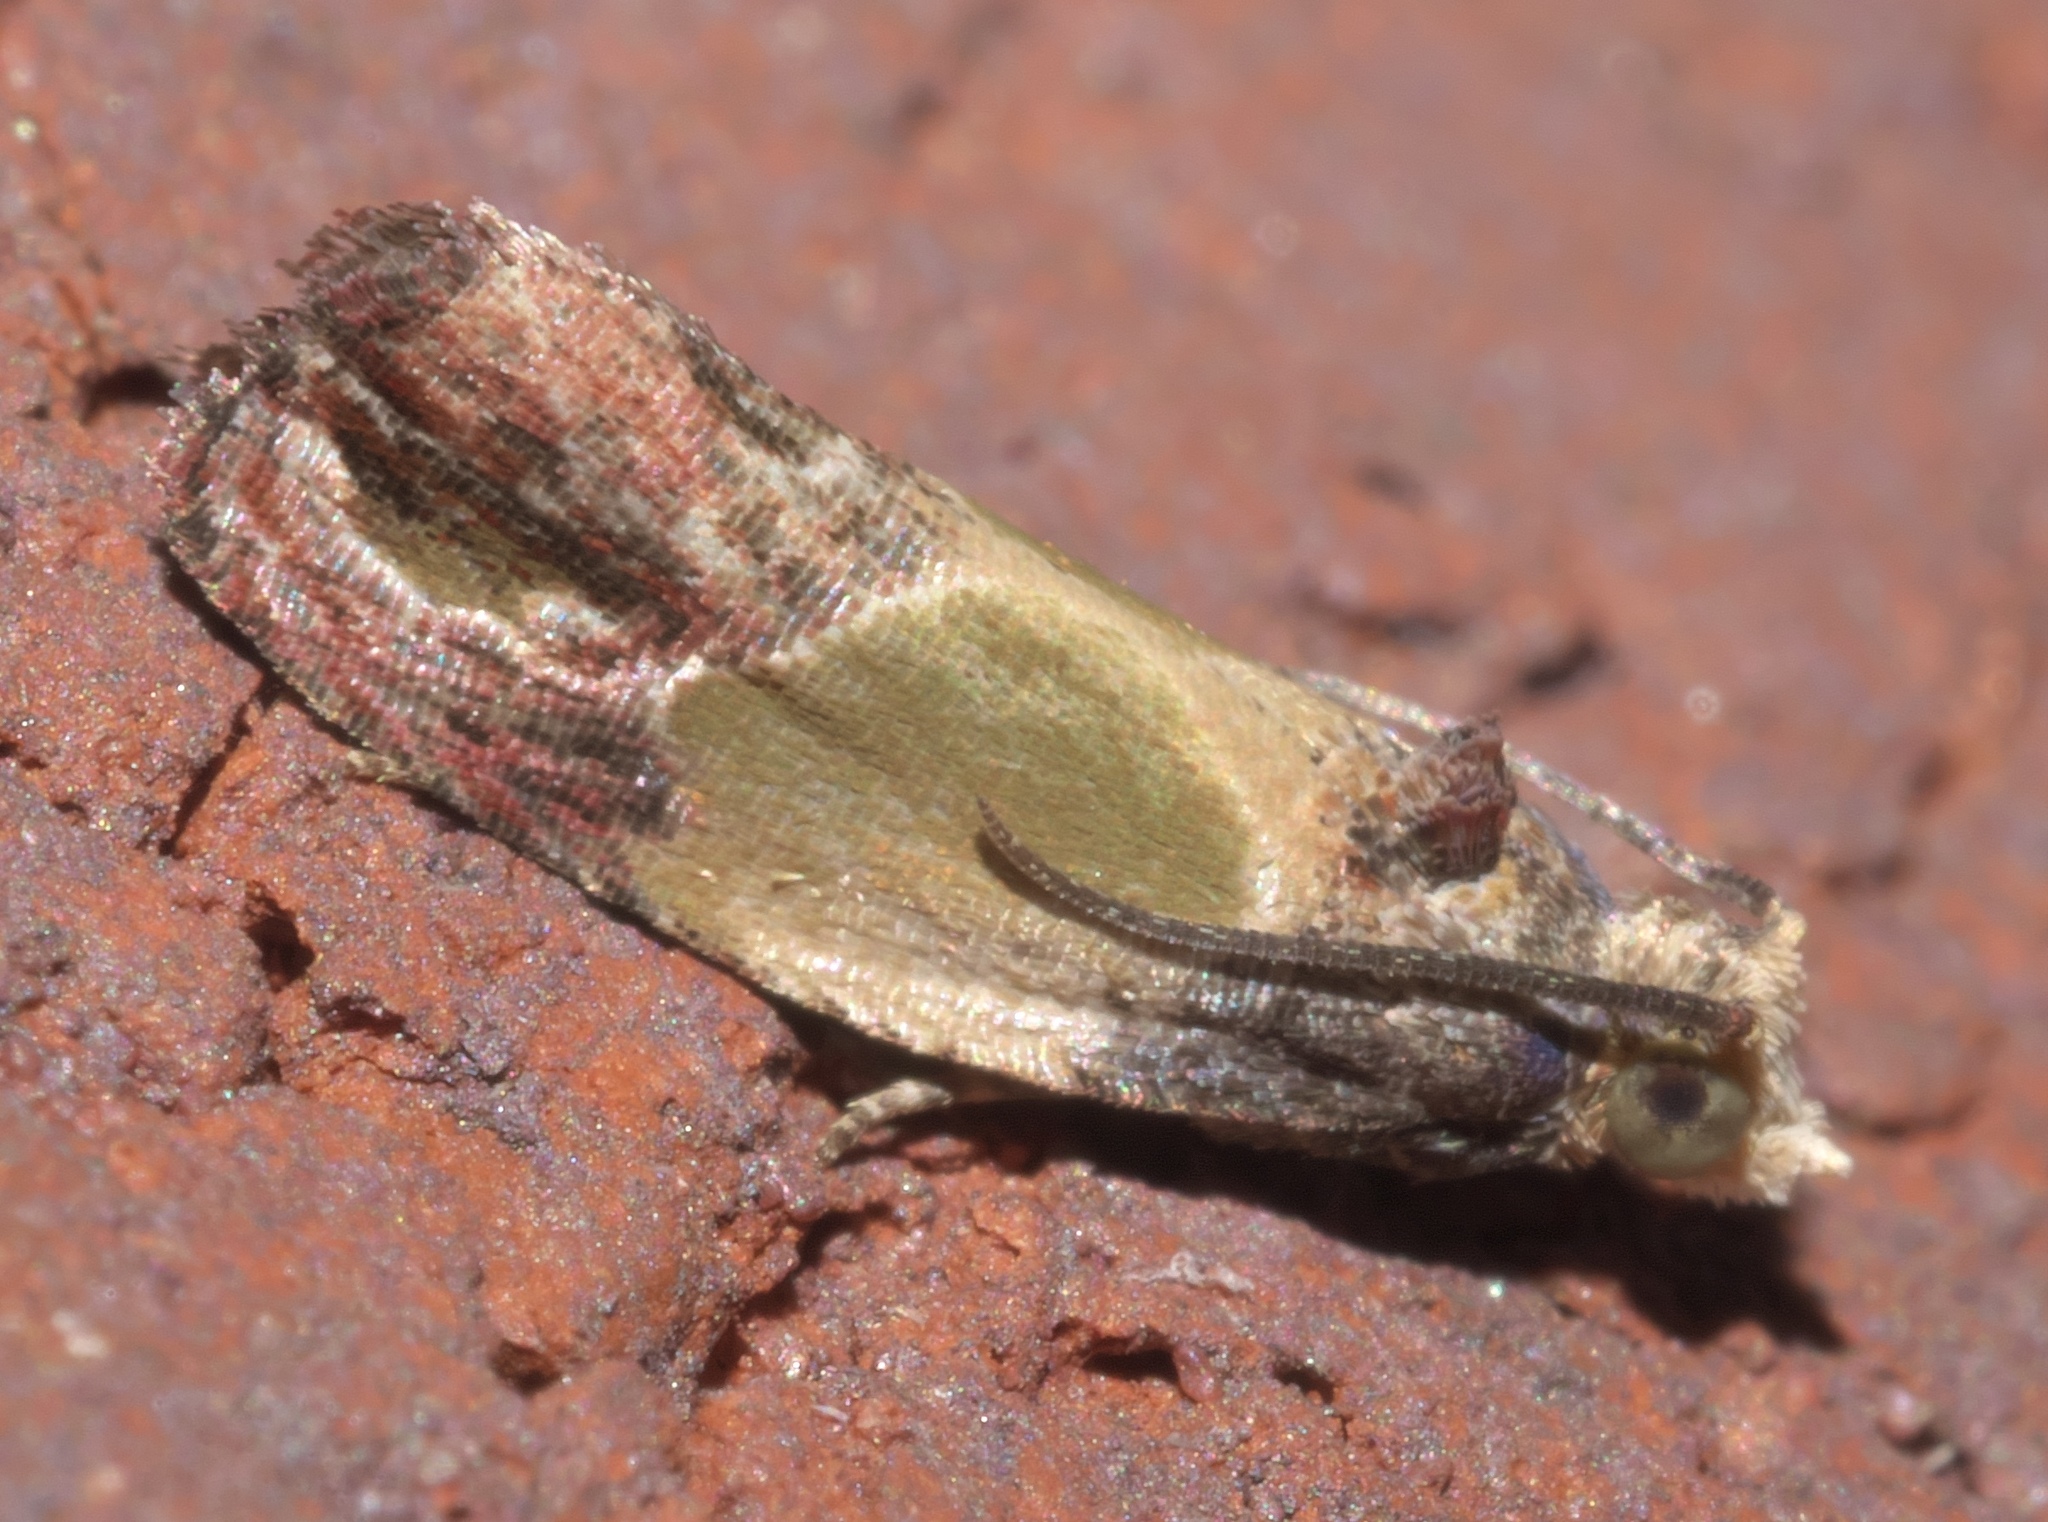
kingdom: Animalia
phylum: Arthropoda
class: Insecta
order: Lepidoptera
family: Tortricidae
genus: Eumarozia
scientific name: Eumarozia malachitana
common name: Sculptured moth
